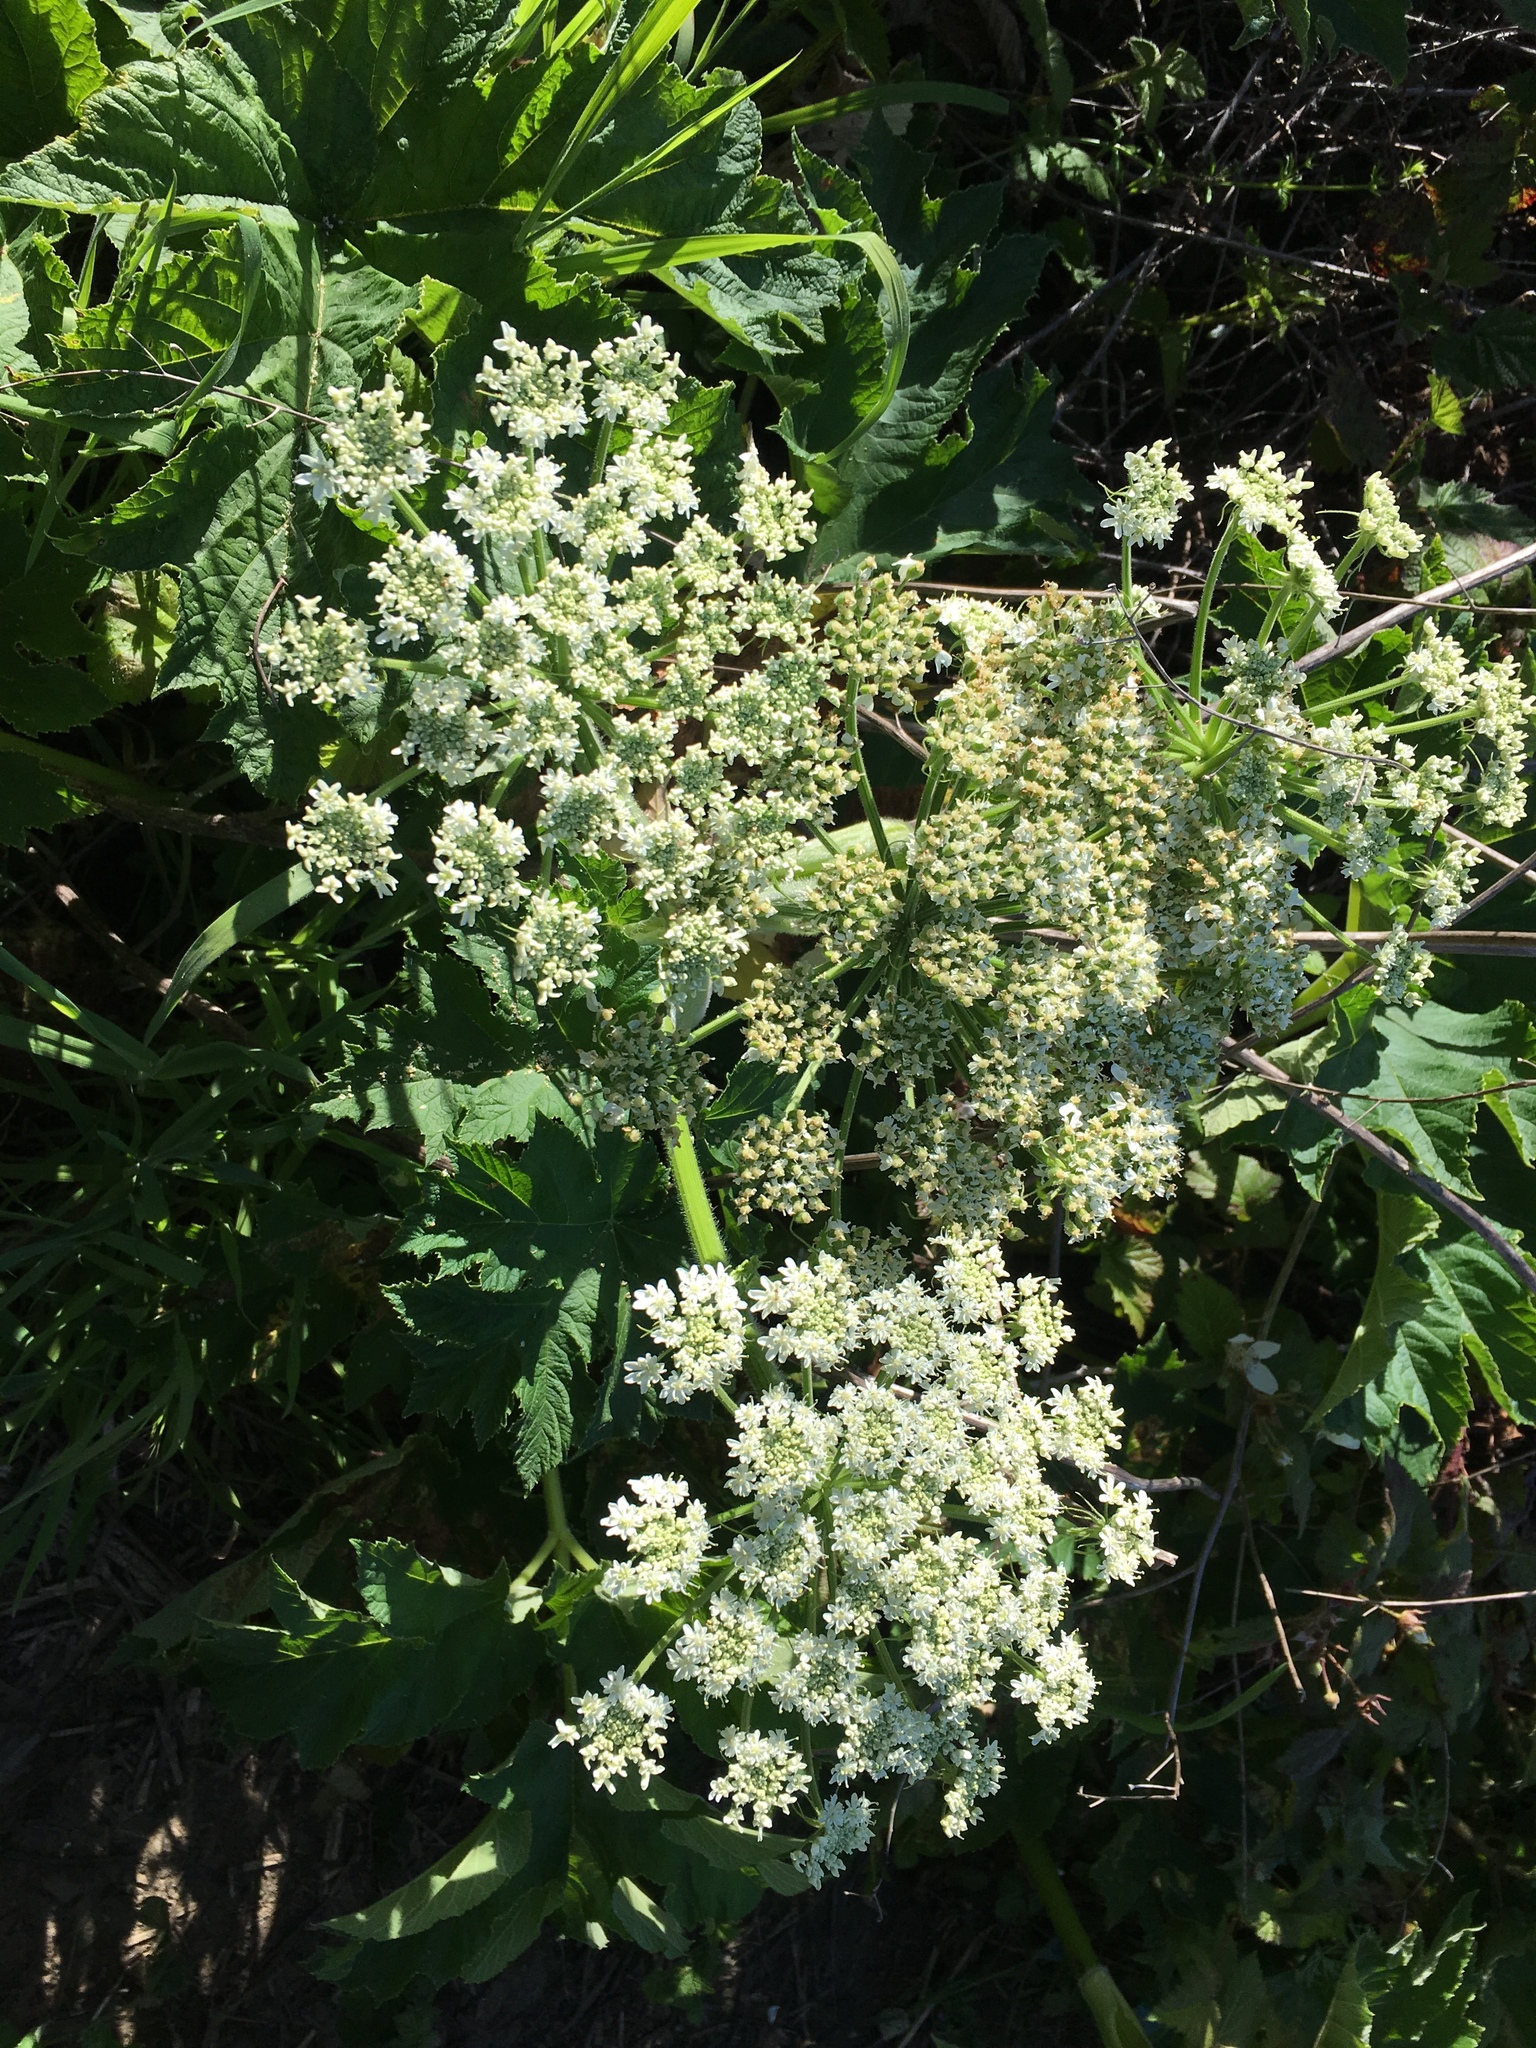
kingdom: Plantae
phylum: Tracheophyta
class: Magnoliopsida
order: Apiales
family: Apiaceae
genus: Heracleum
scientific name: Heracleum maximum
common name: American cow parsnip
